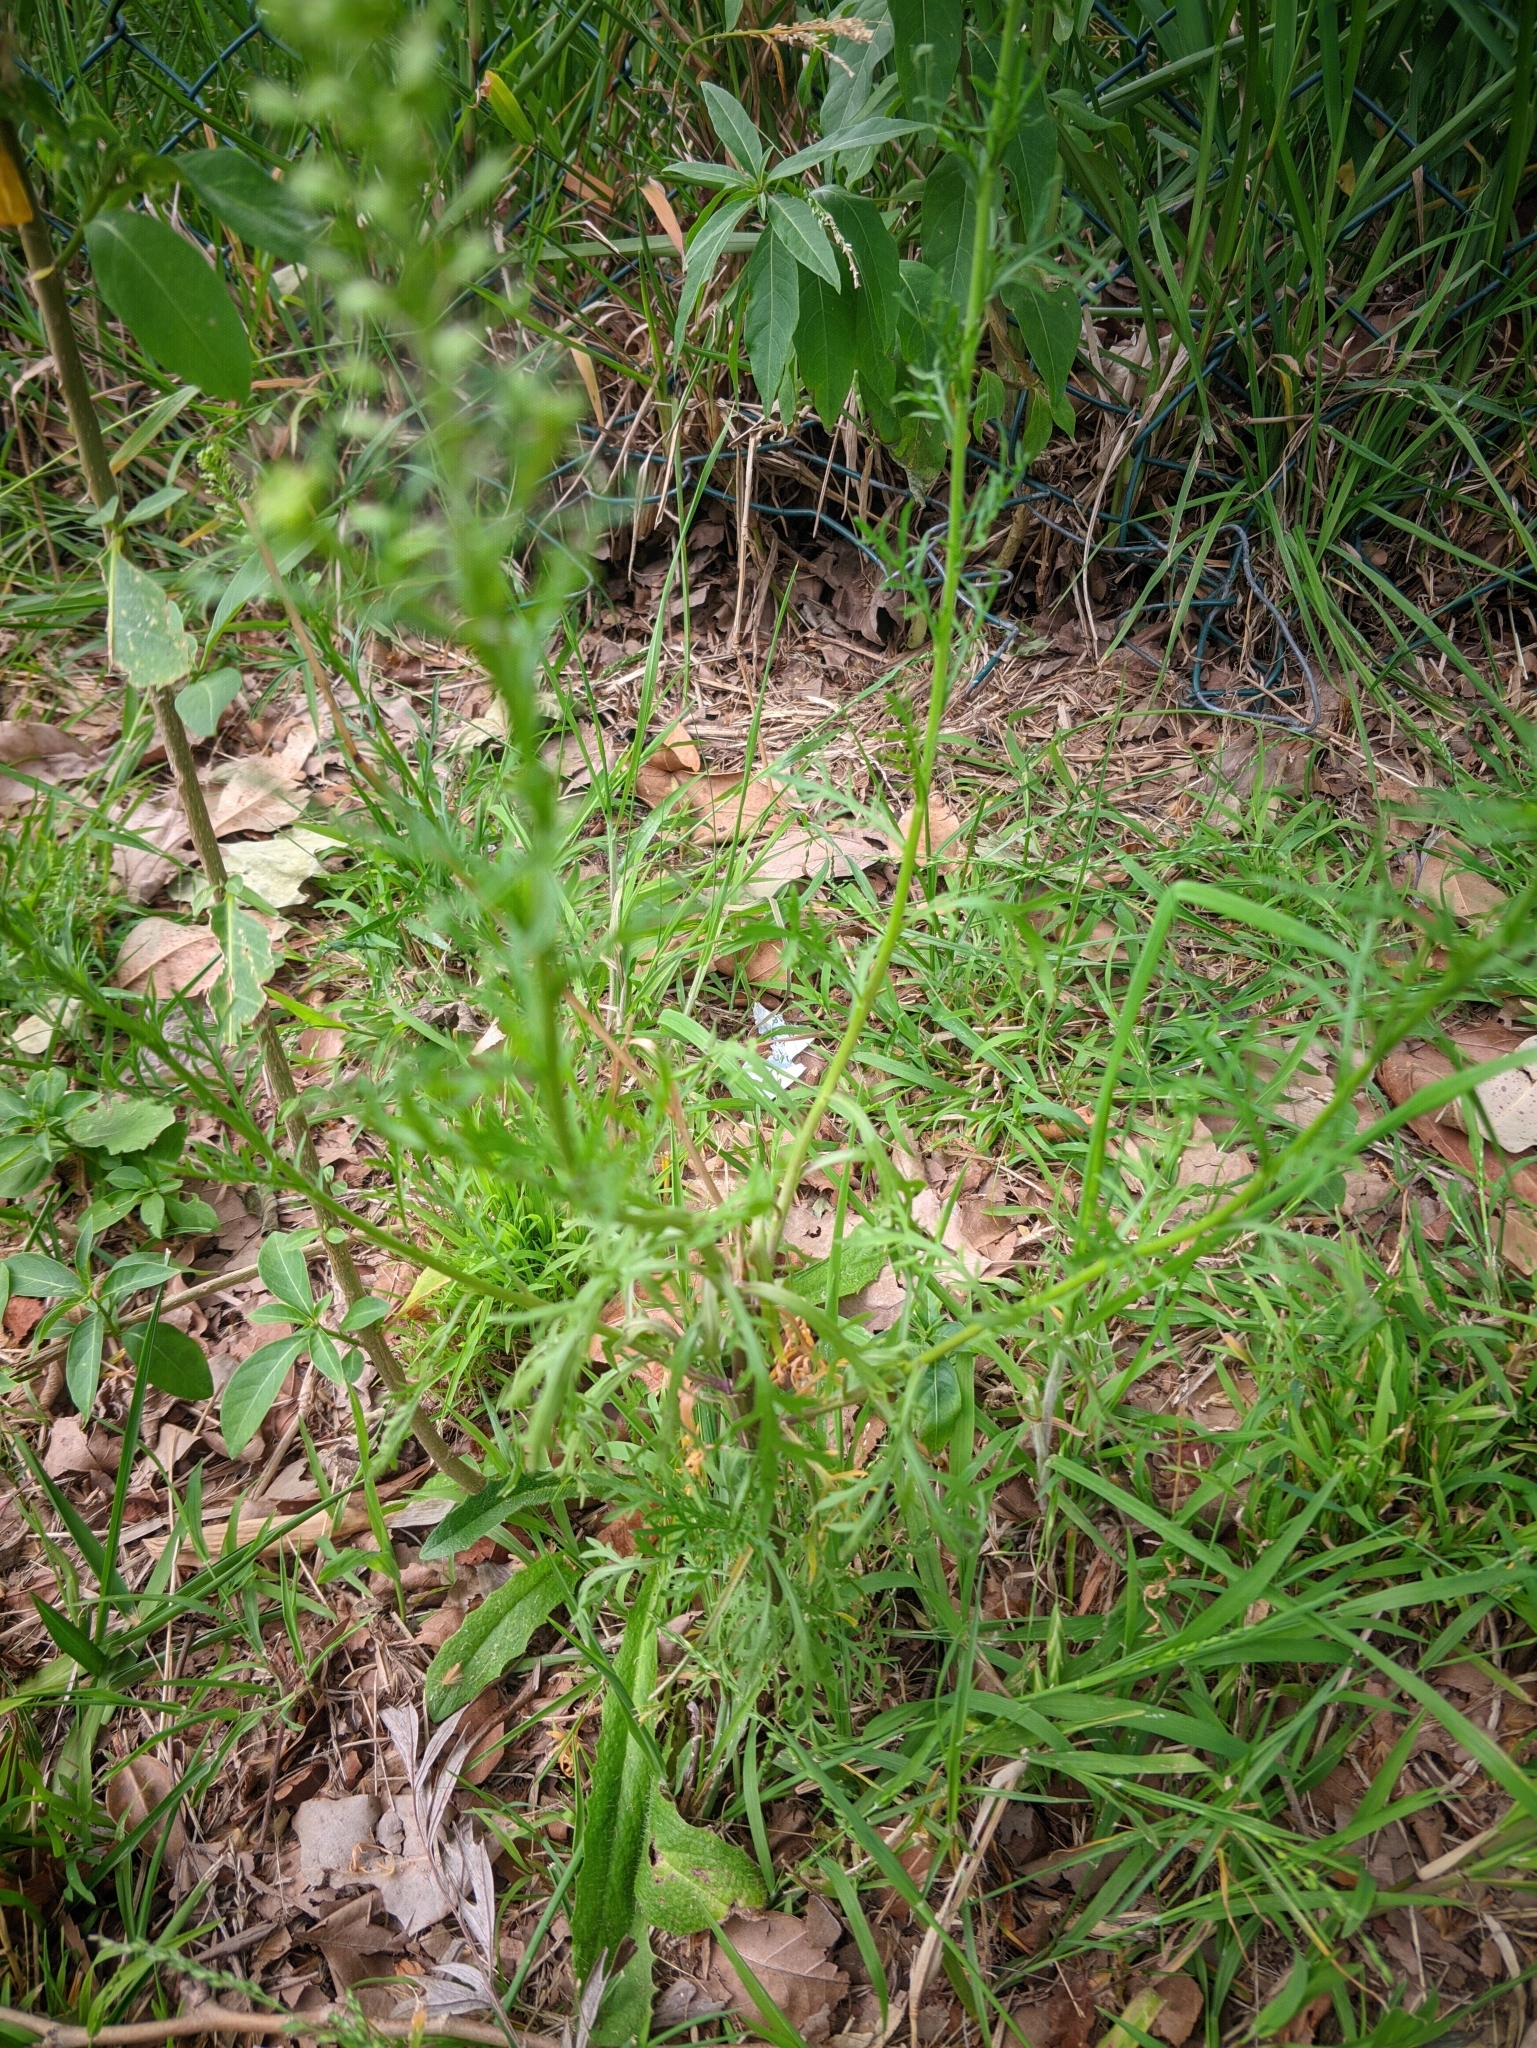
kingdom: Plantae
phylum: Tracheophyta
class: Magnoliopsida
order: Brassicales
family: Brassicaceae
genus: Lepidium
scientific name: Lepidium bonariense
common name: Argentine pepperwort
